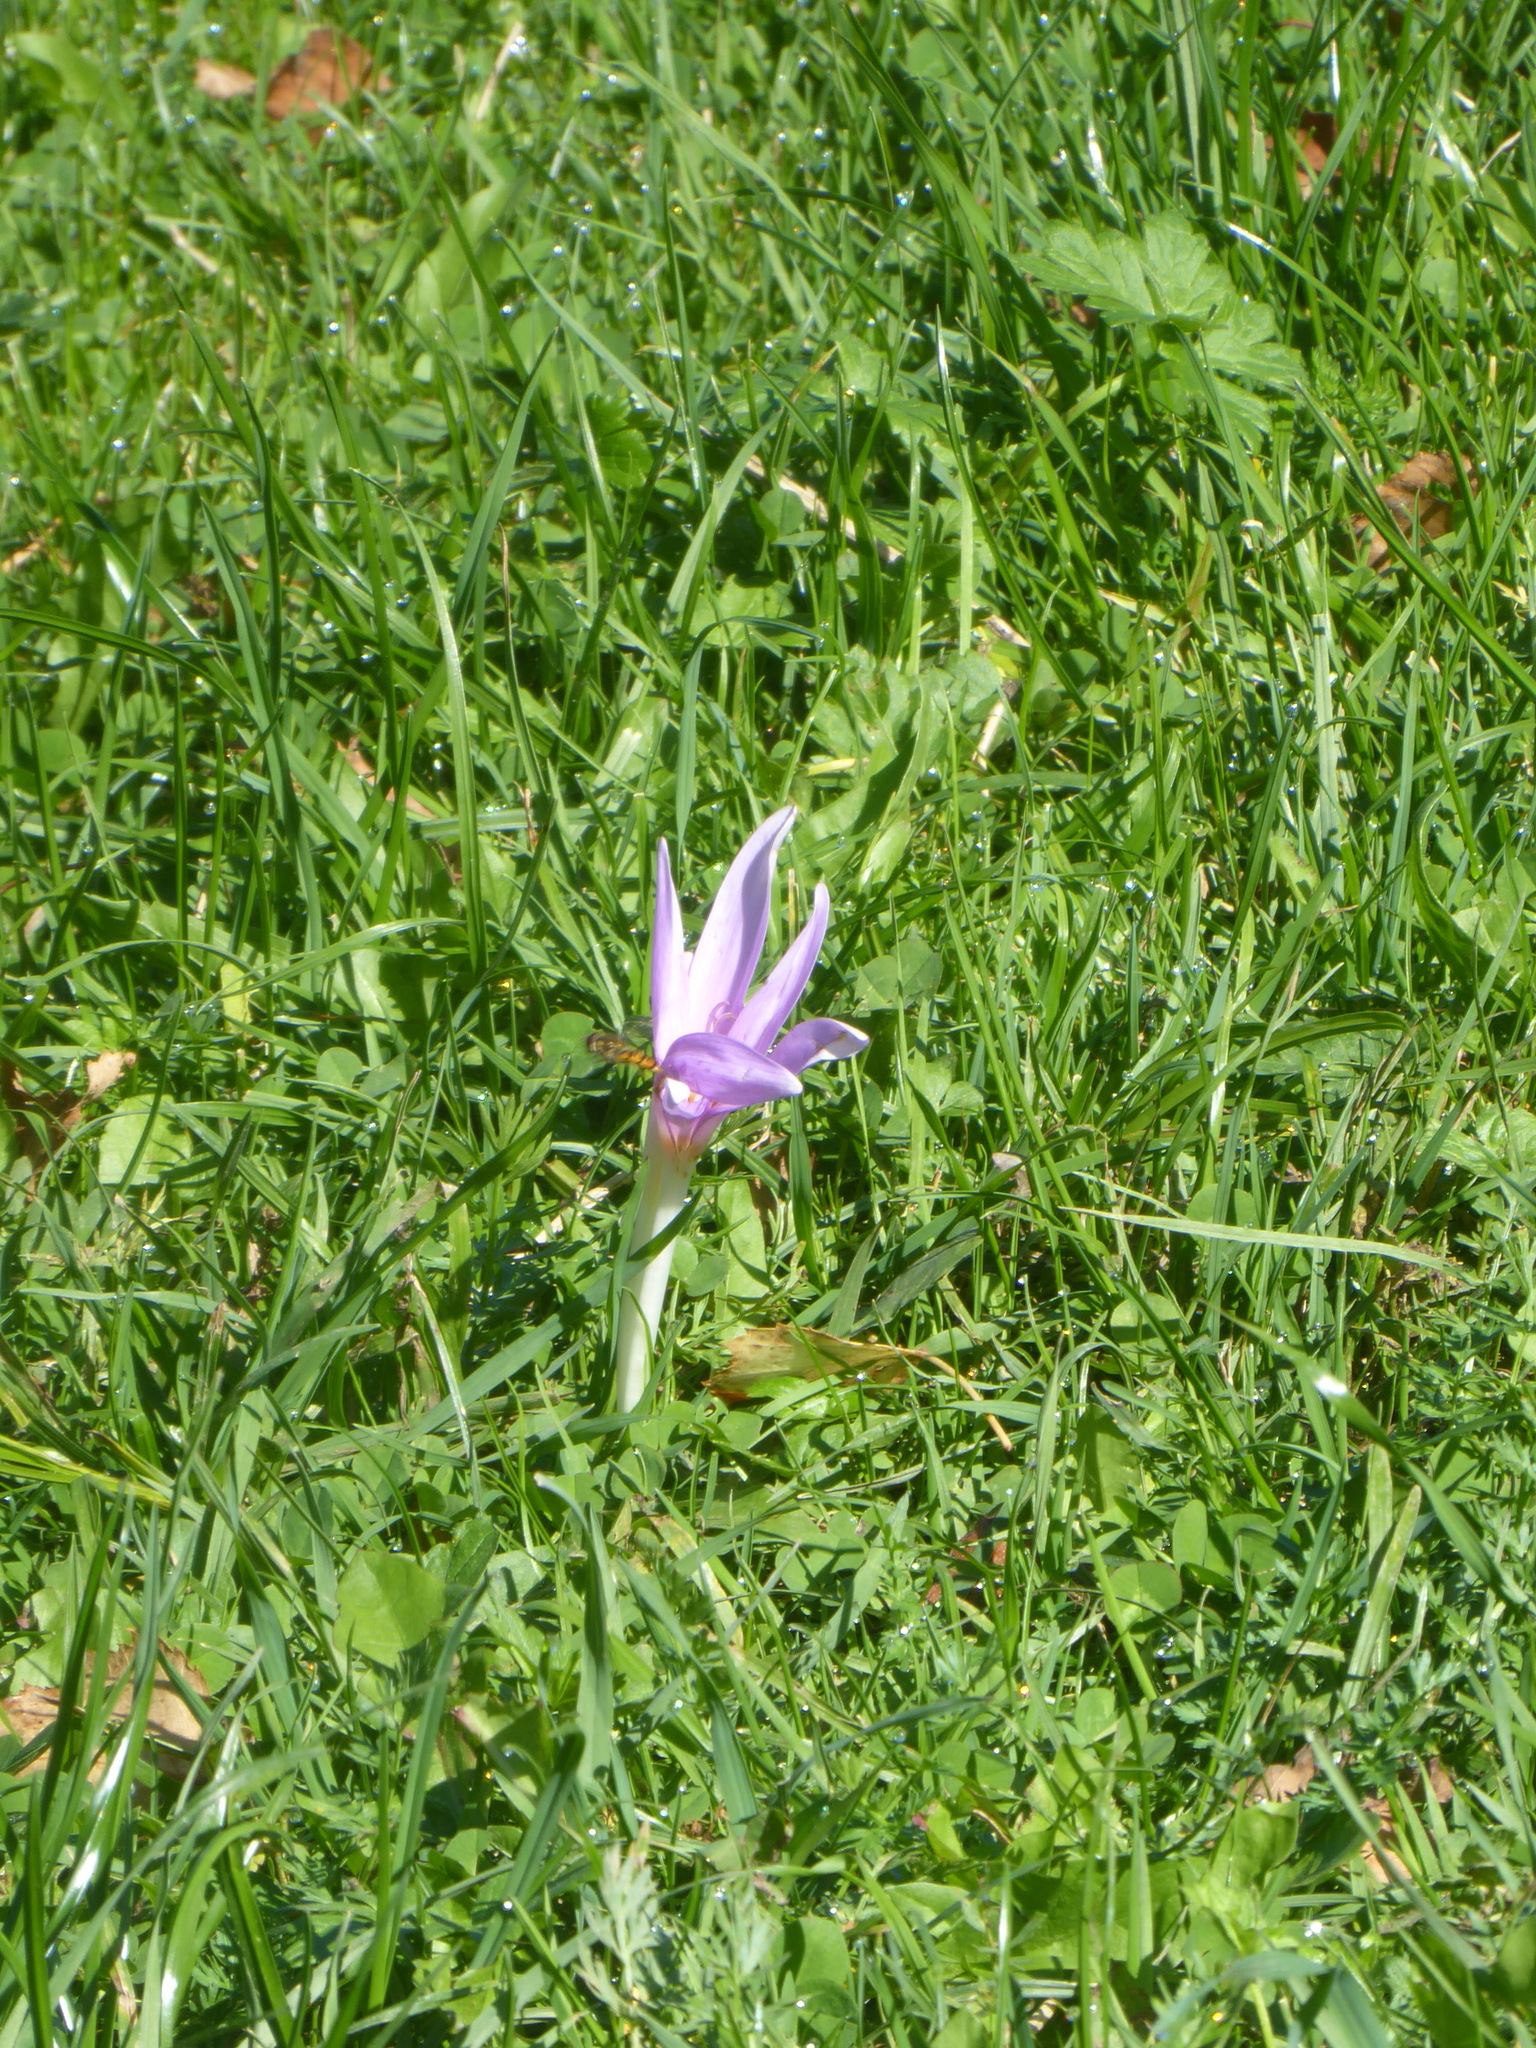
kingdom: Plantae
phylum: Tracheophyta
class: Liliopsida
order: Liliales
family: Colchicaceae
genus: Colchicum
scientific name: Colchicum autumnale
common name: Autumn crocus
